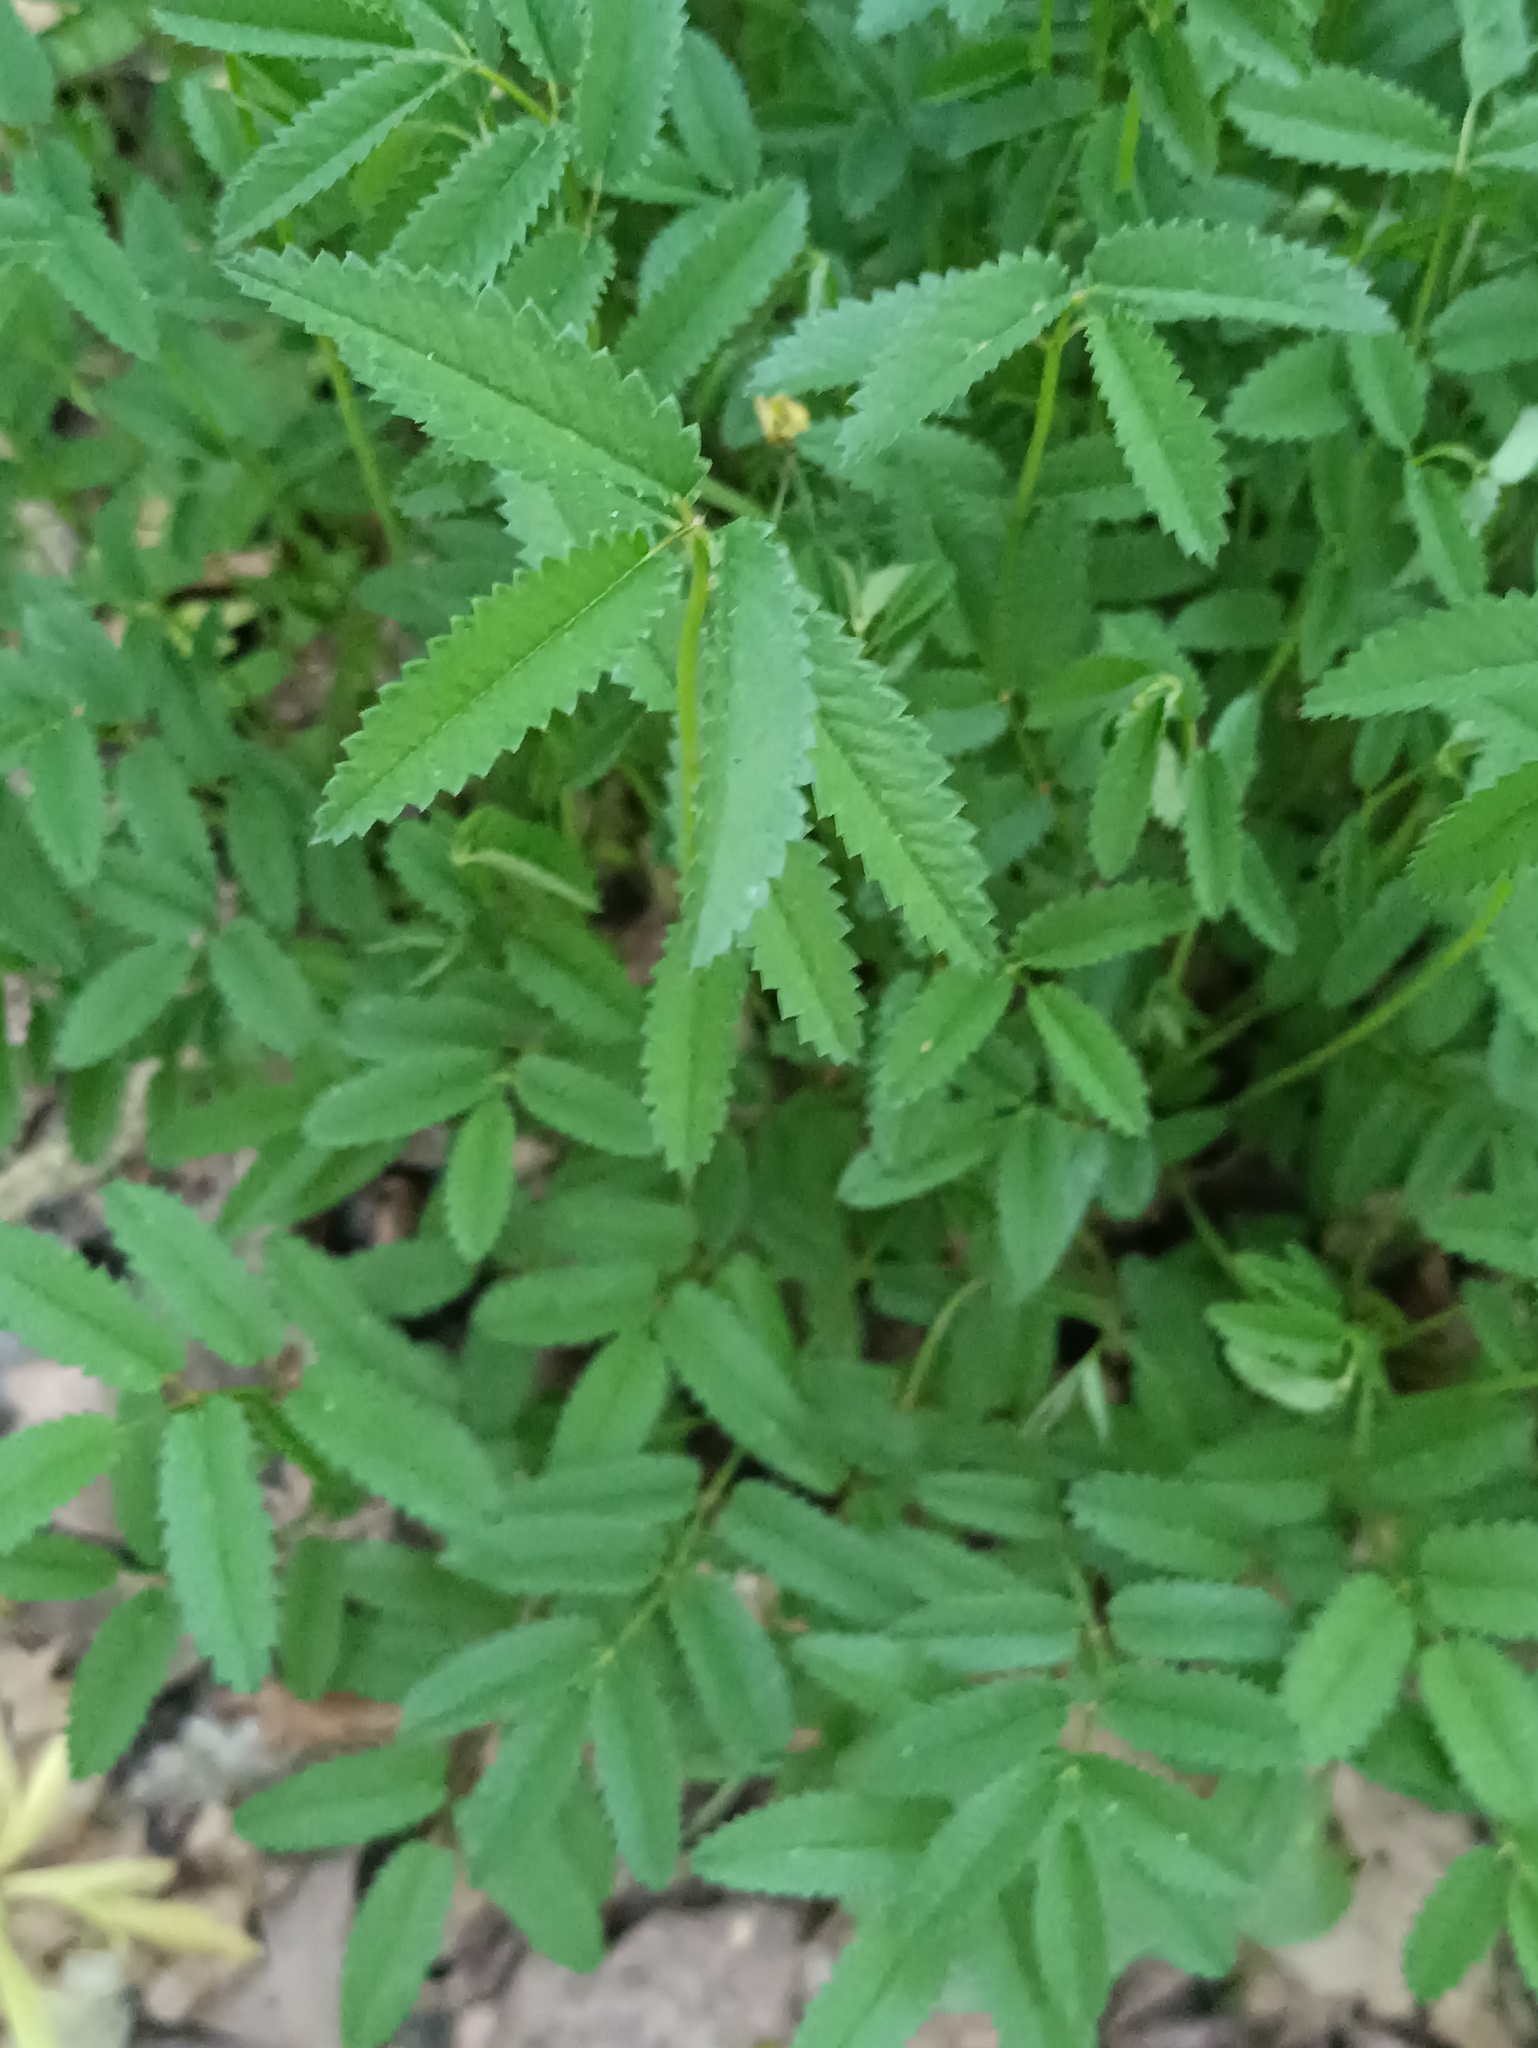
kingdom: Plantae
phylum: Tracheophyta
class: Magnoliopsida
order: Rosales
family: Rosaceae
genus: Sanguisorba
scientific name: Sanguisorba officinalis
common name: Great burnet
